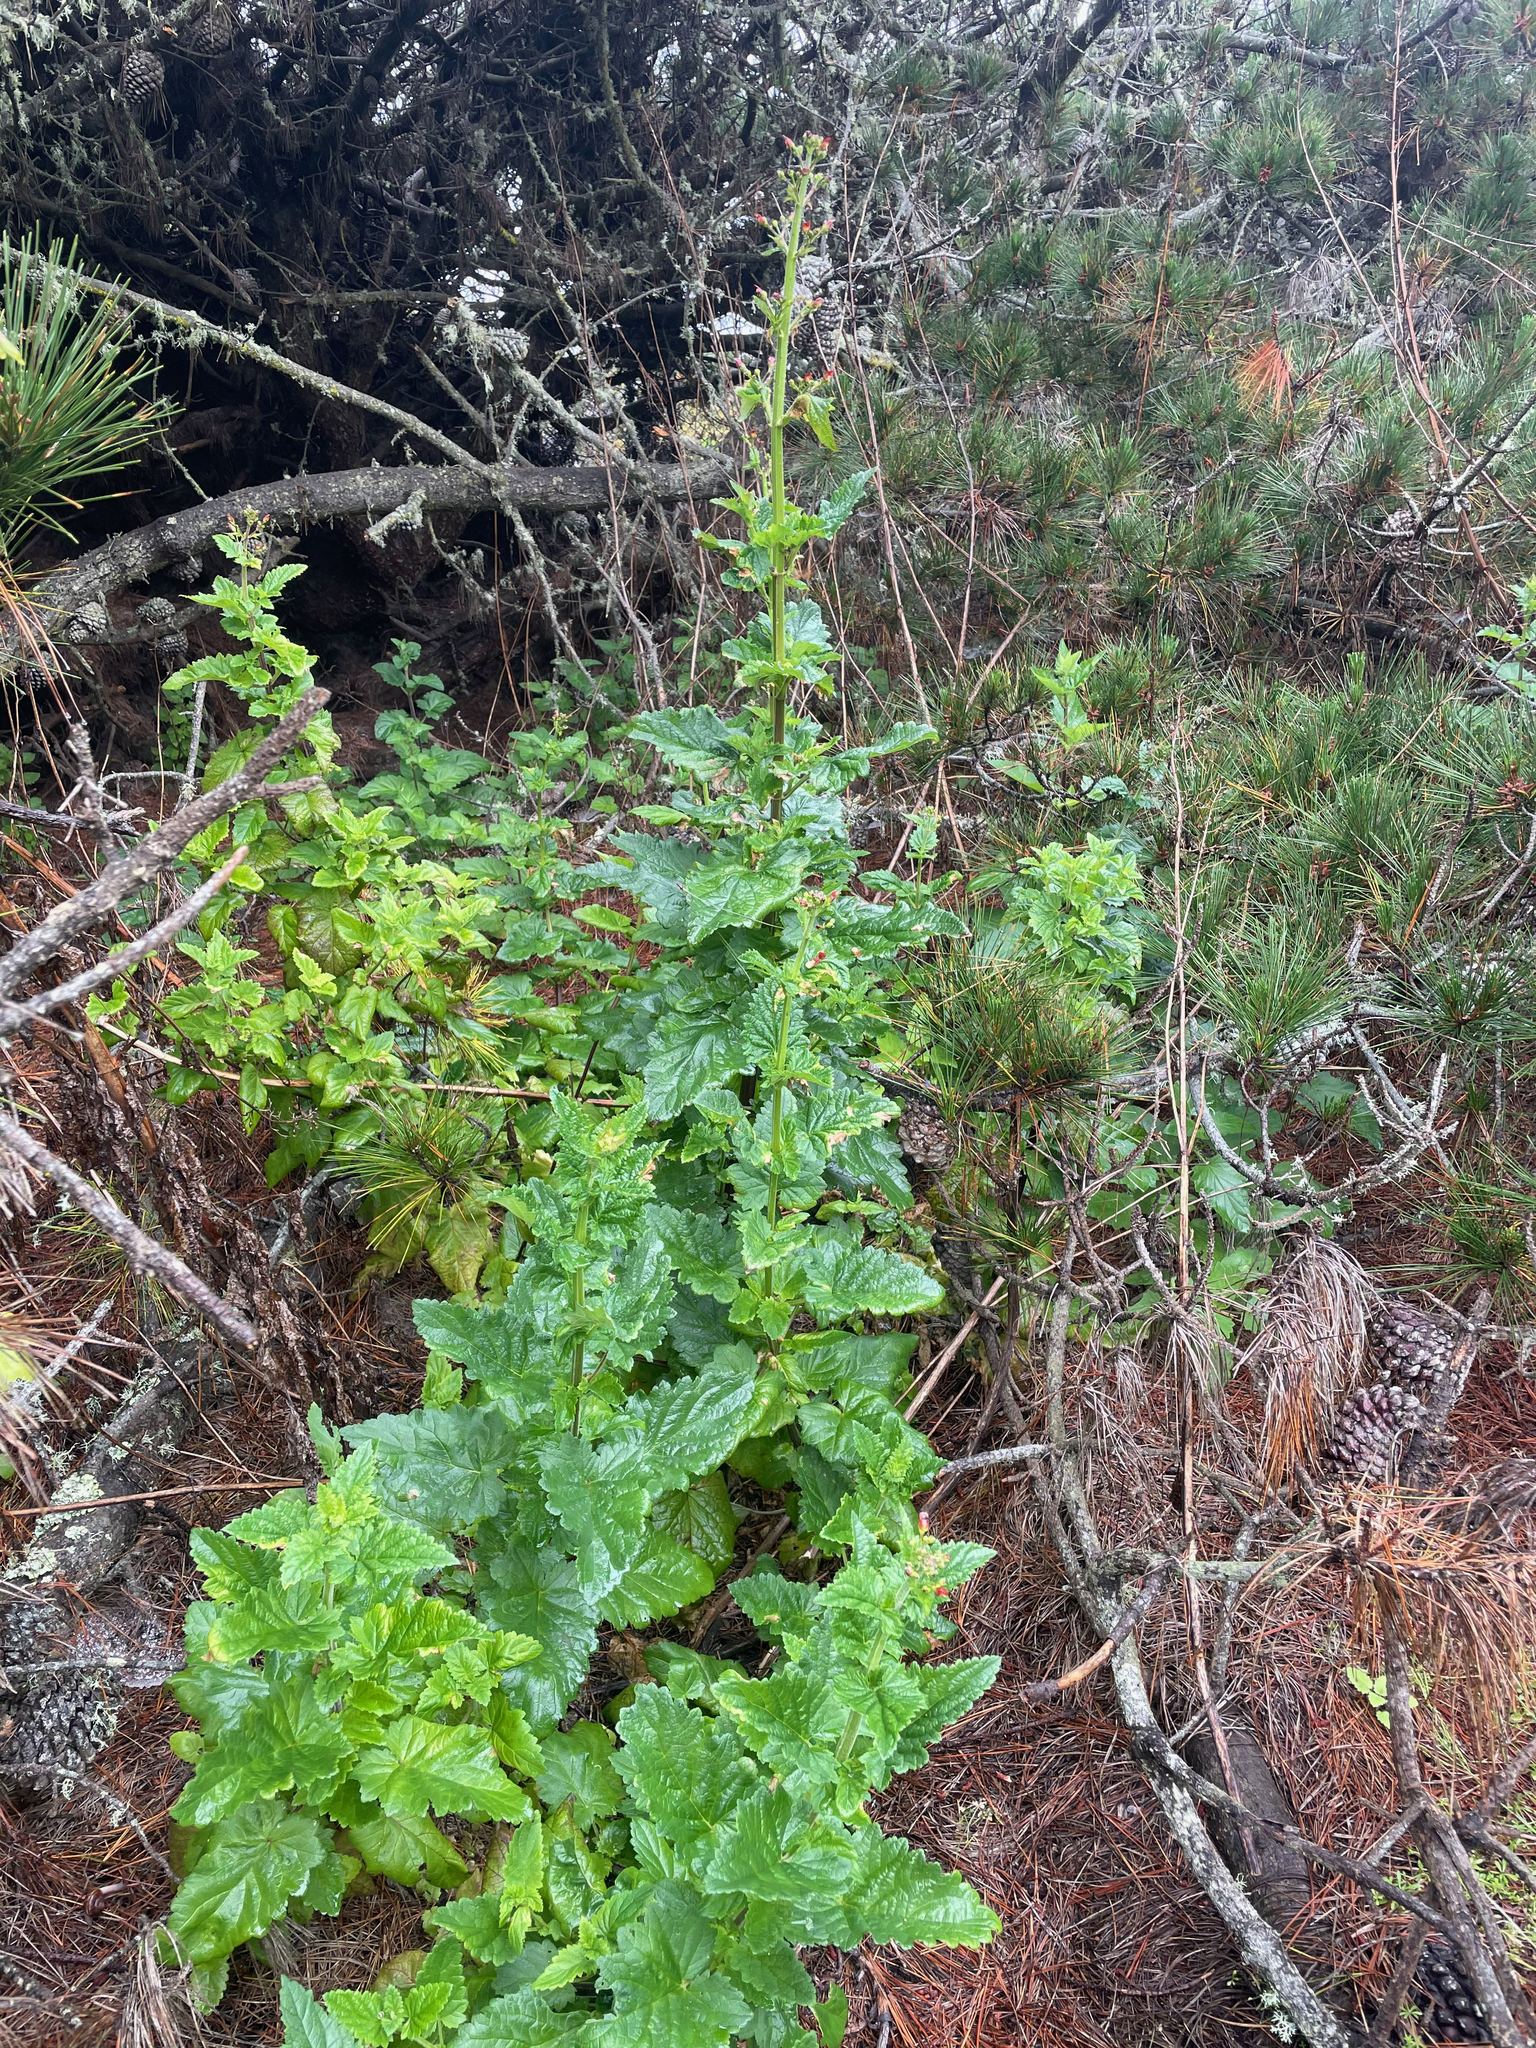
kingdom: Plantae
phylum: Tracheophyta
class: Magnoliopsida
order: Lamiales
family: Scrophulariaceae
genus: Scrophularia
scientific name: Scrophularia californica
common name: California figwort
